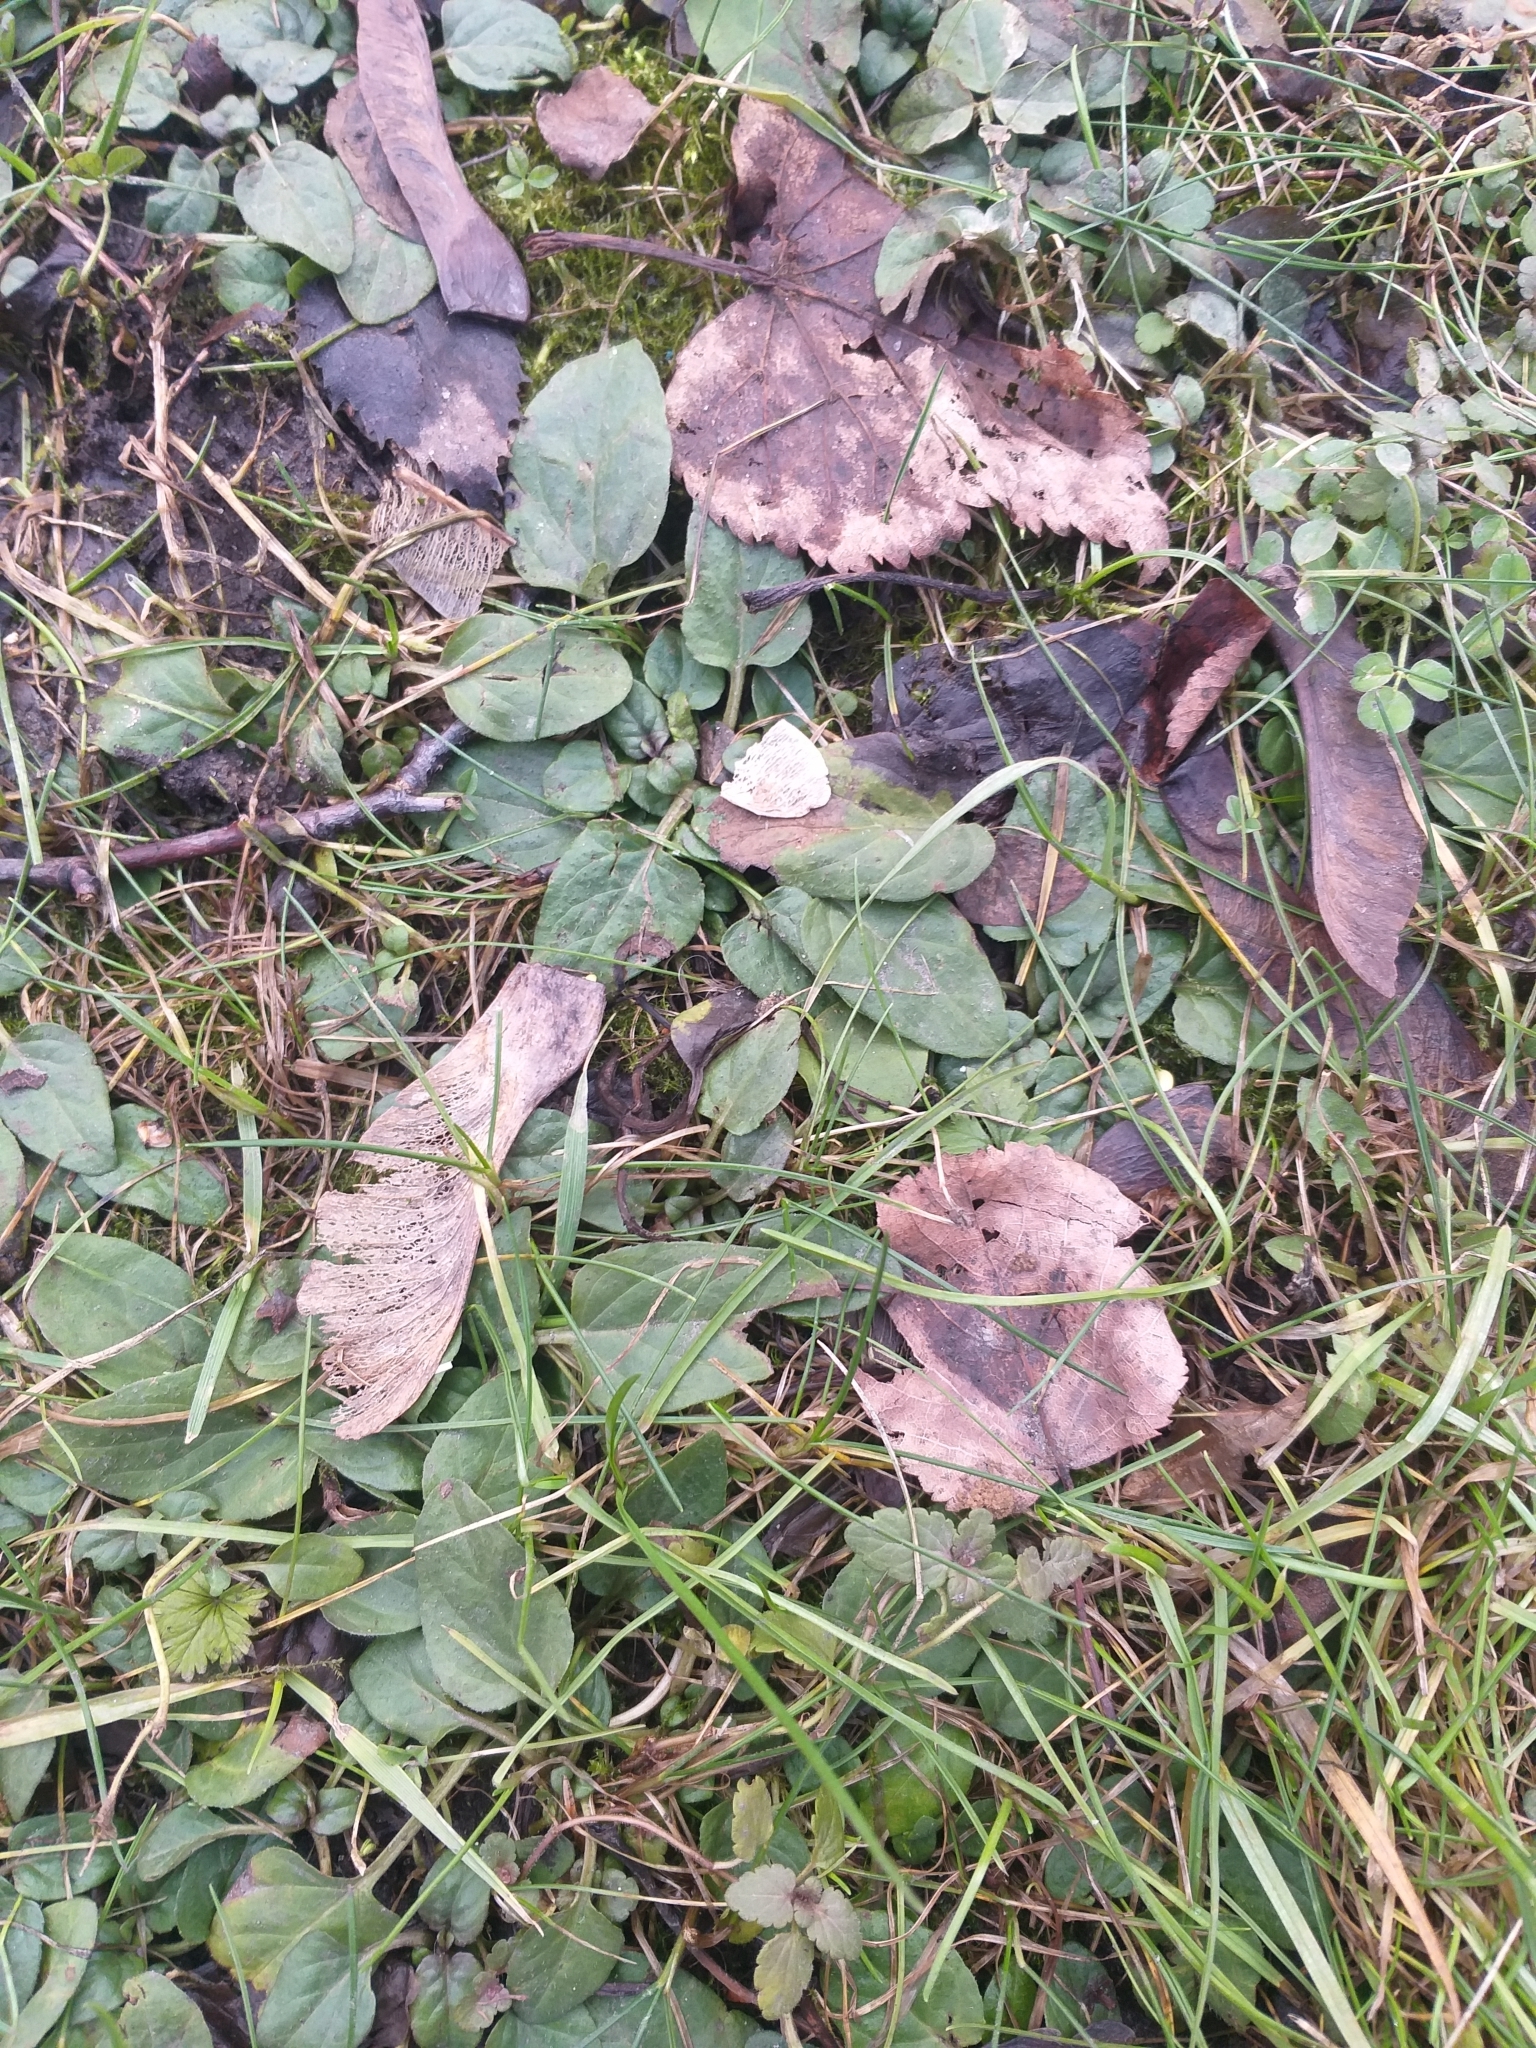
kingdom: Plantae
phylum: Tracheophyta
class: Magnoliopsida
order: Lamiales
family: Lamiaceae
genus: Prunella
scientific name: Prunella vulgaris
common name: Heal-all
